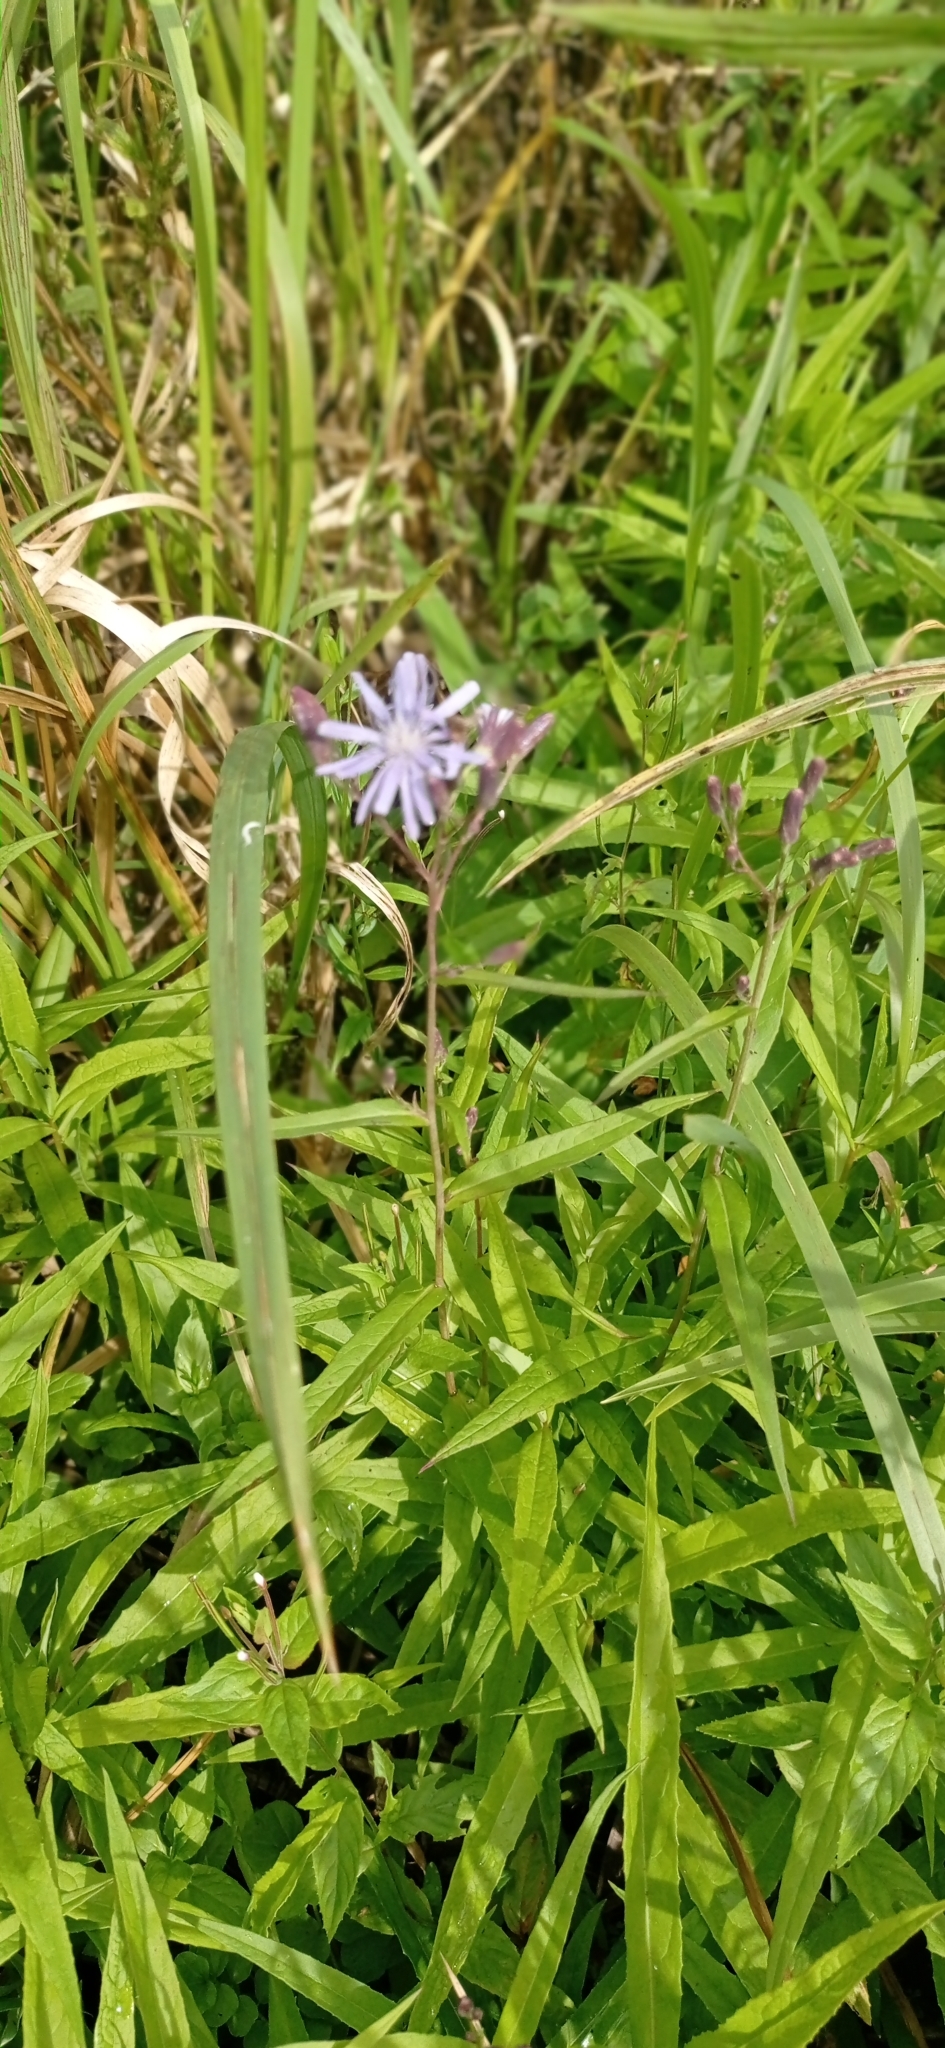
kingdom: Plantae
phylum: Tracheophyta
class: Magnoliopsida
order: Asterales
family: Asteraceae
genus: Lactuca
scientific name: Lactuca tatarica
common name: Blue lettuce
